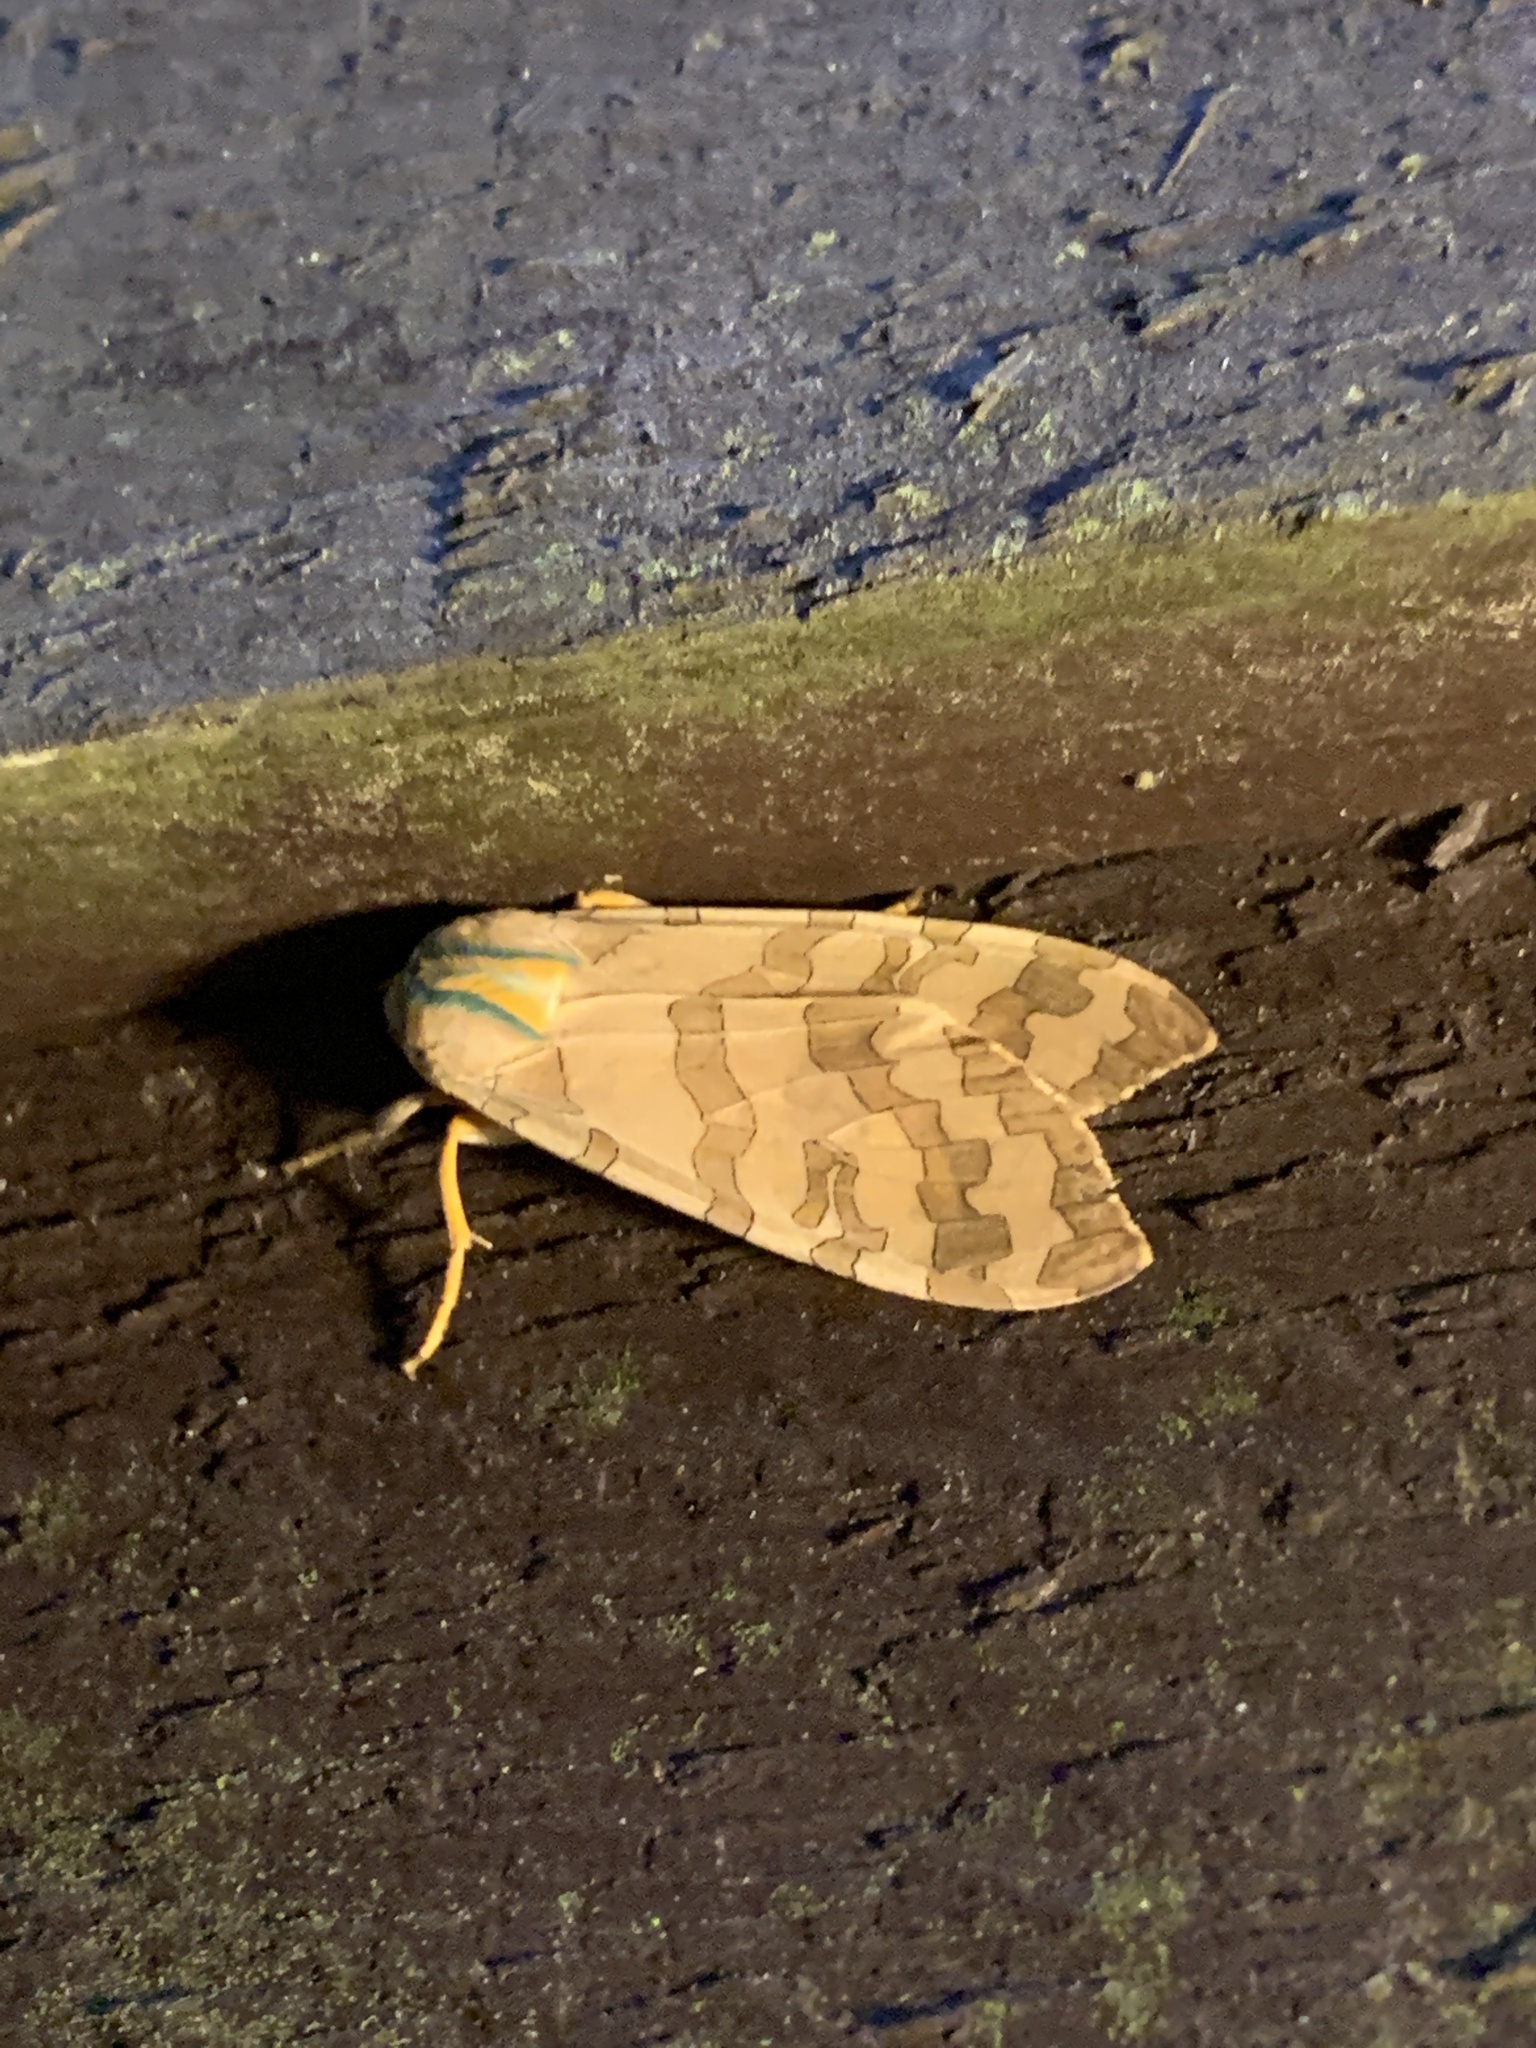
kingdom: Animalia
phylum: Arthropoda
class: Insecta
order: Lepidoptera
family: Erebidae
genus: Halysidota
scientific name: Halysidota
